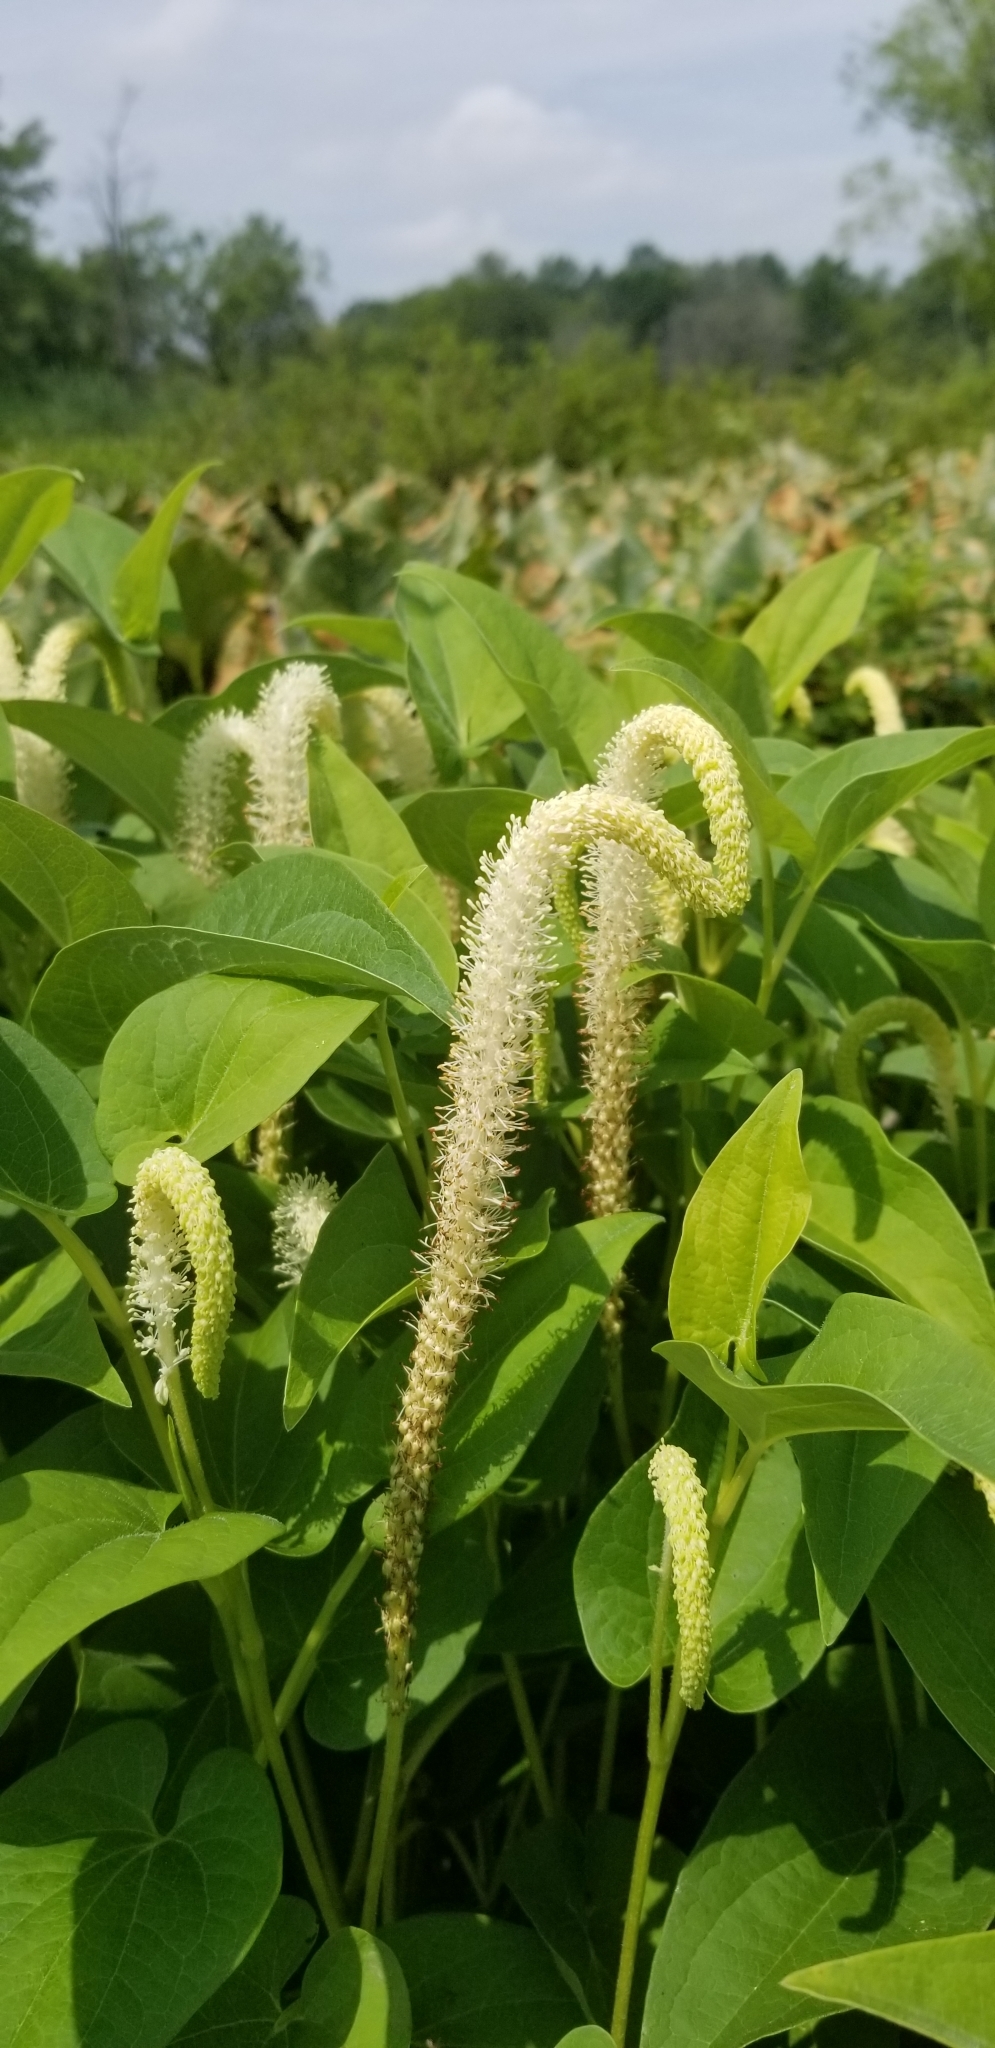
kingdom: Plantae
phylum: Tracheophyta
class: Magnoliopsida
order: Piperales
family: Saururaceae
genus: Saururus
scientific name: Saururus cernuus
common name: Lizard's-tail
